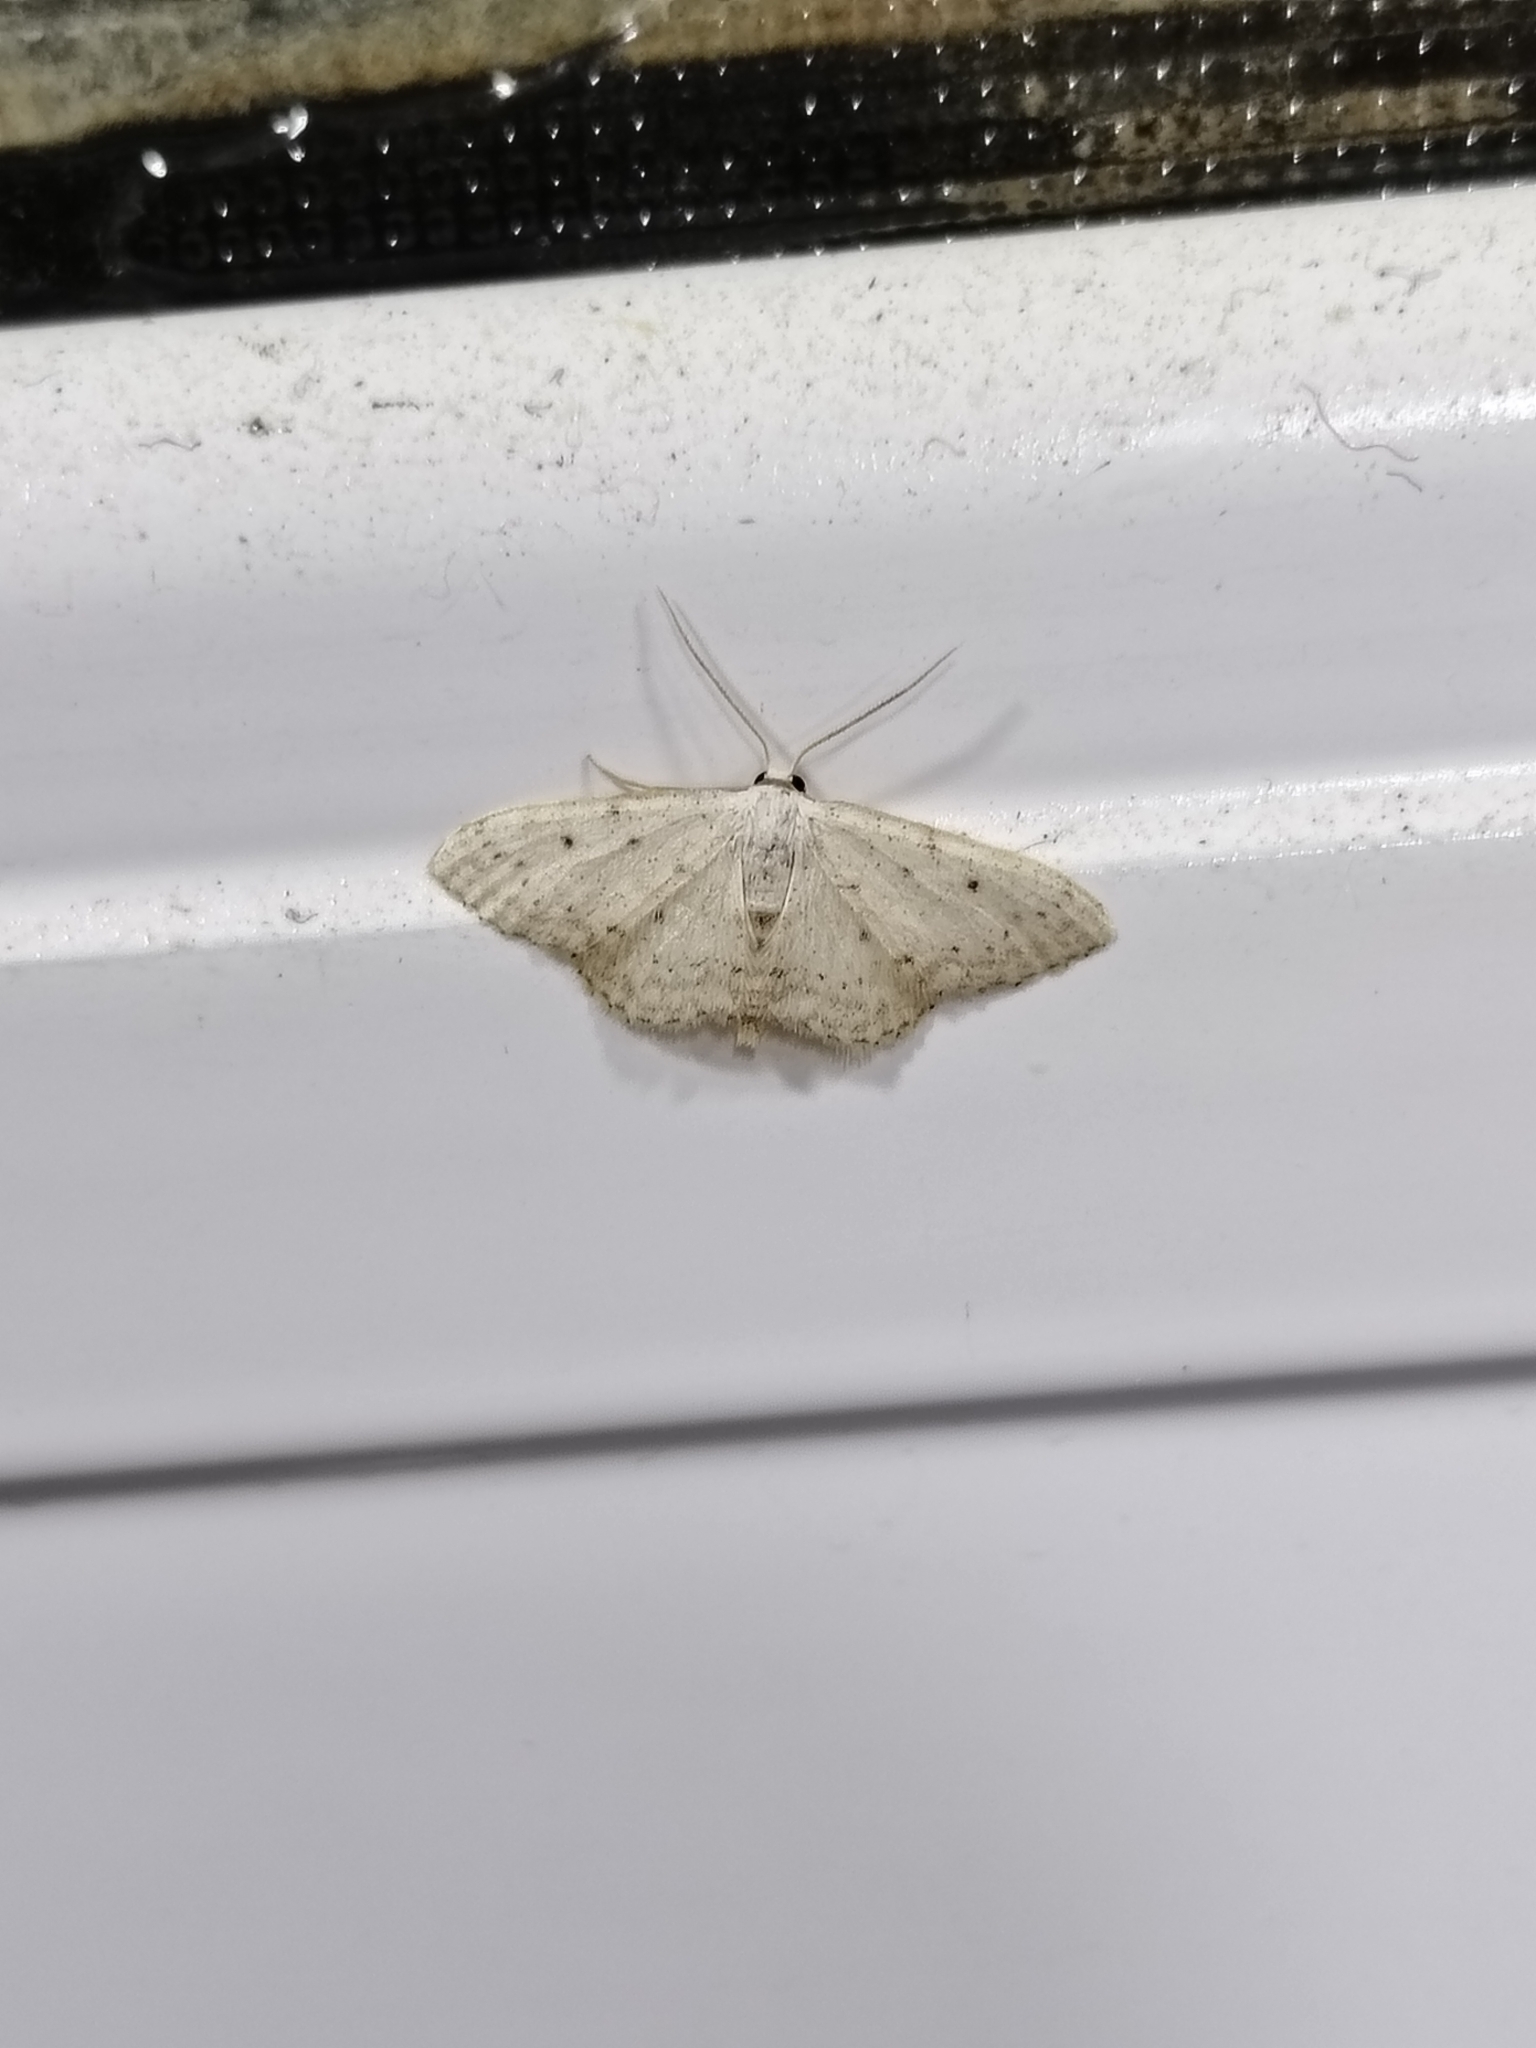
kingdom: Animalia
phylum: Arthropoda
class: Insecta
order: Lepidoptera
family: Geometridae
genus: Idaea
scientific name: Idaea seriata
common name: Small dusty wave
